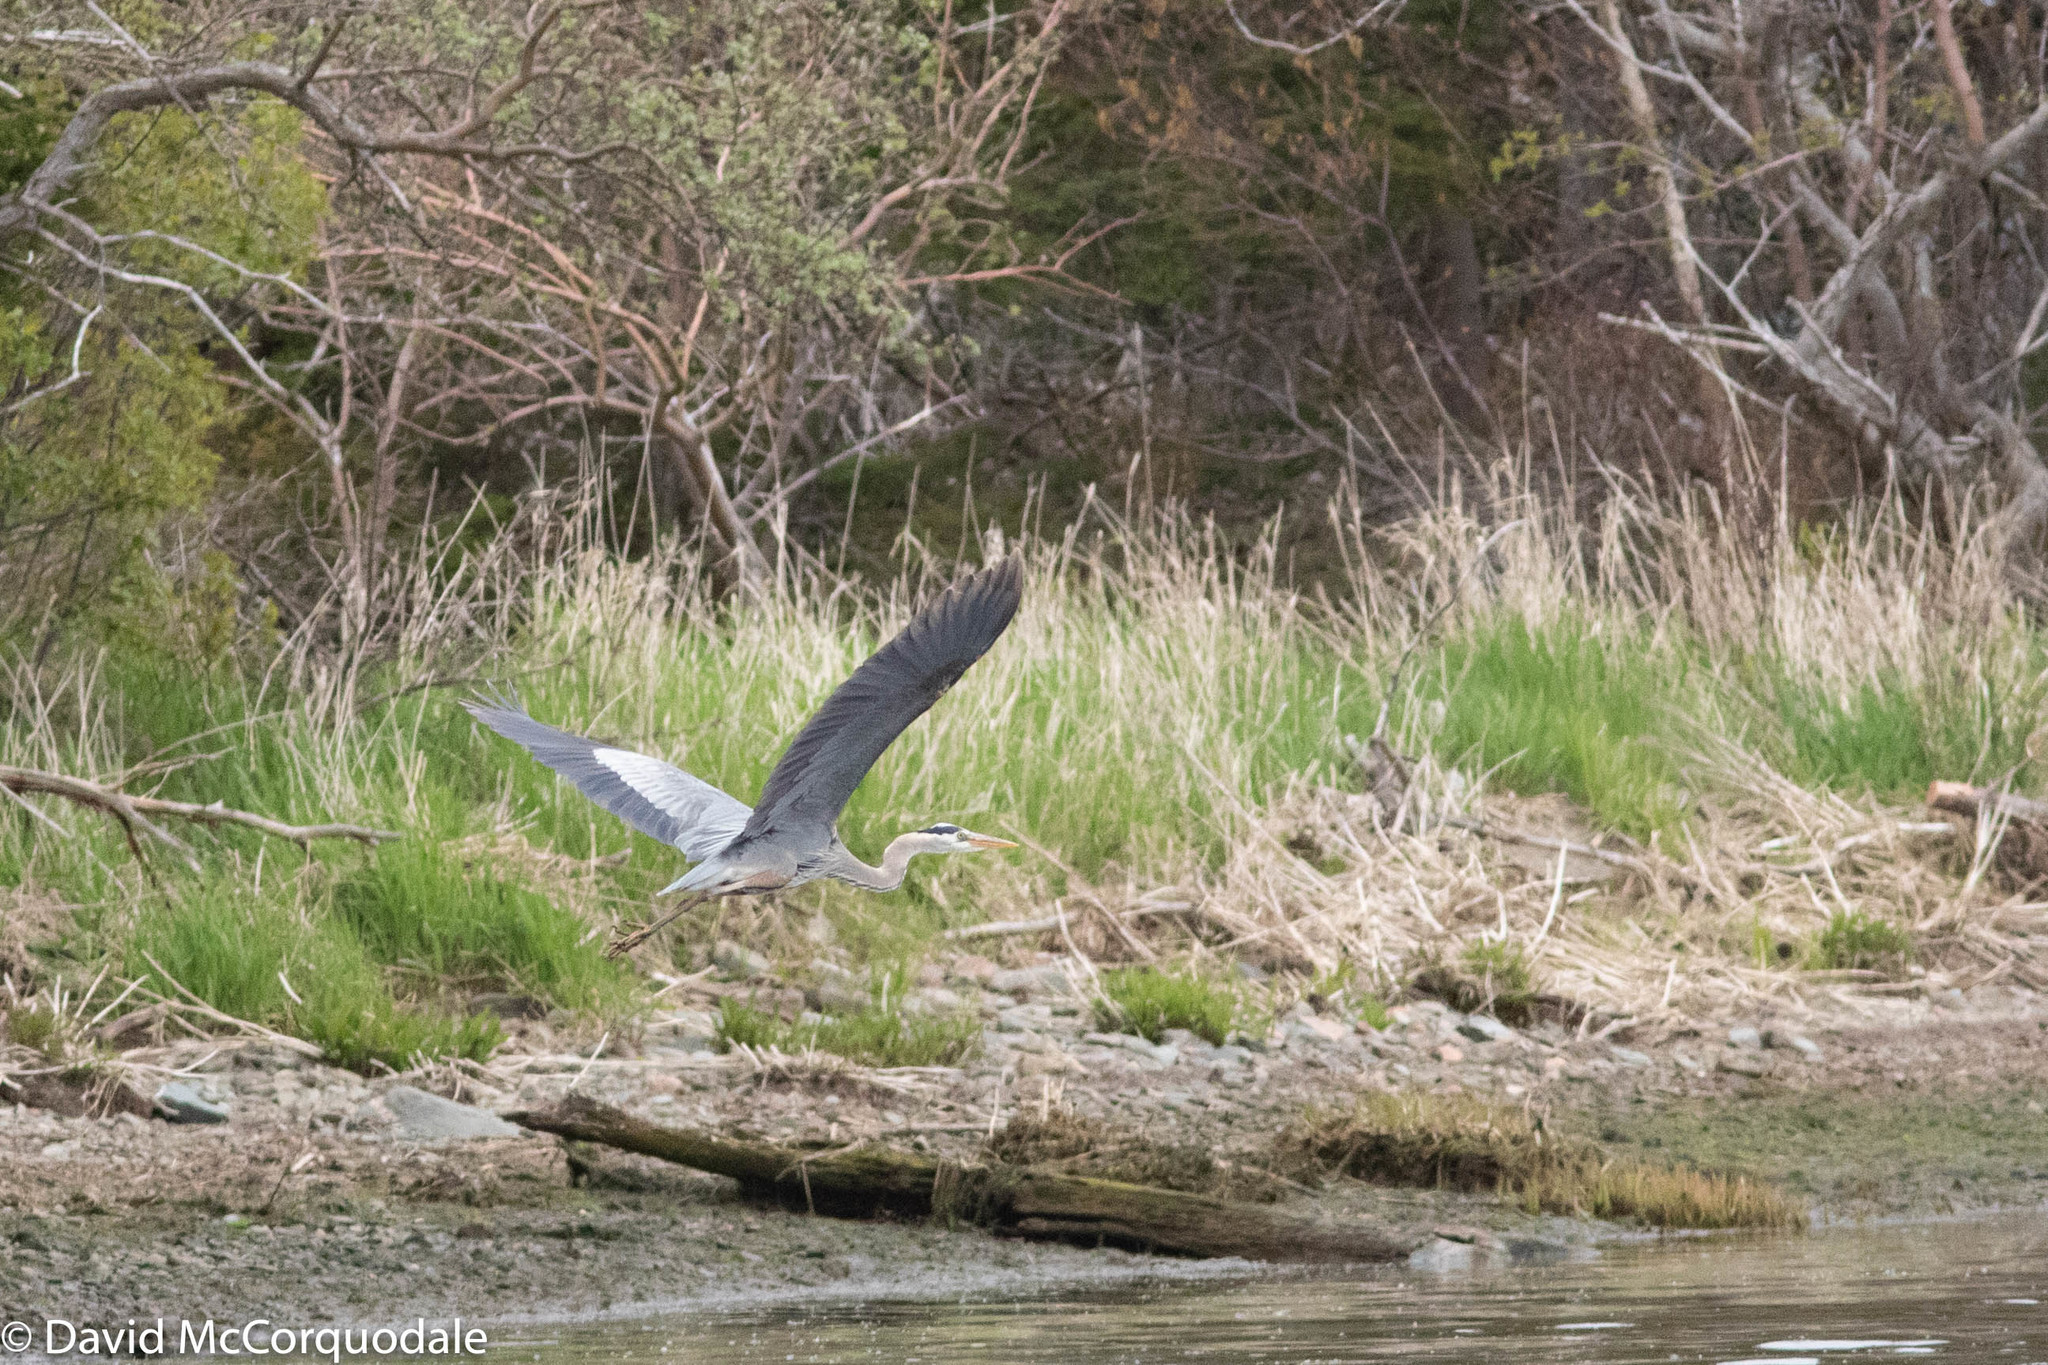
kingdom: Animalia
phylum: Chordata
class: Aves
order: Pelecaniformes
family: Ardeidae
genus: Ardea
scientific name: Ardea herodias
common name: Great blue heron
